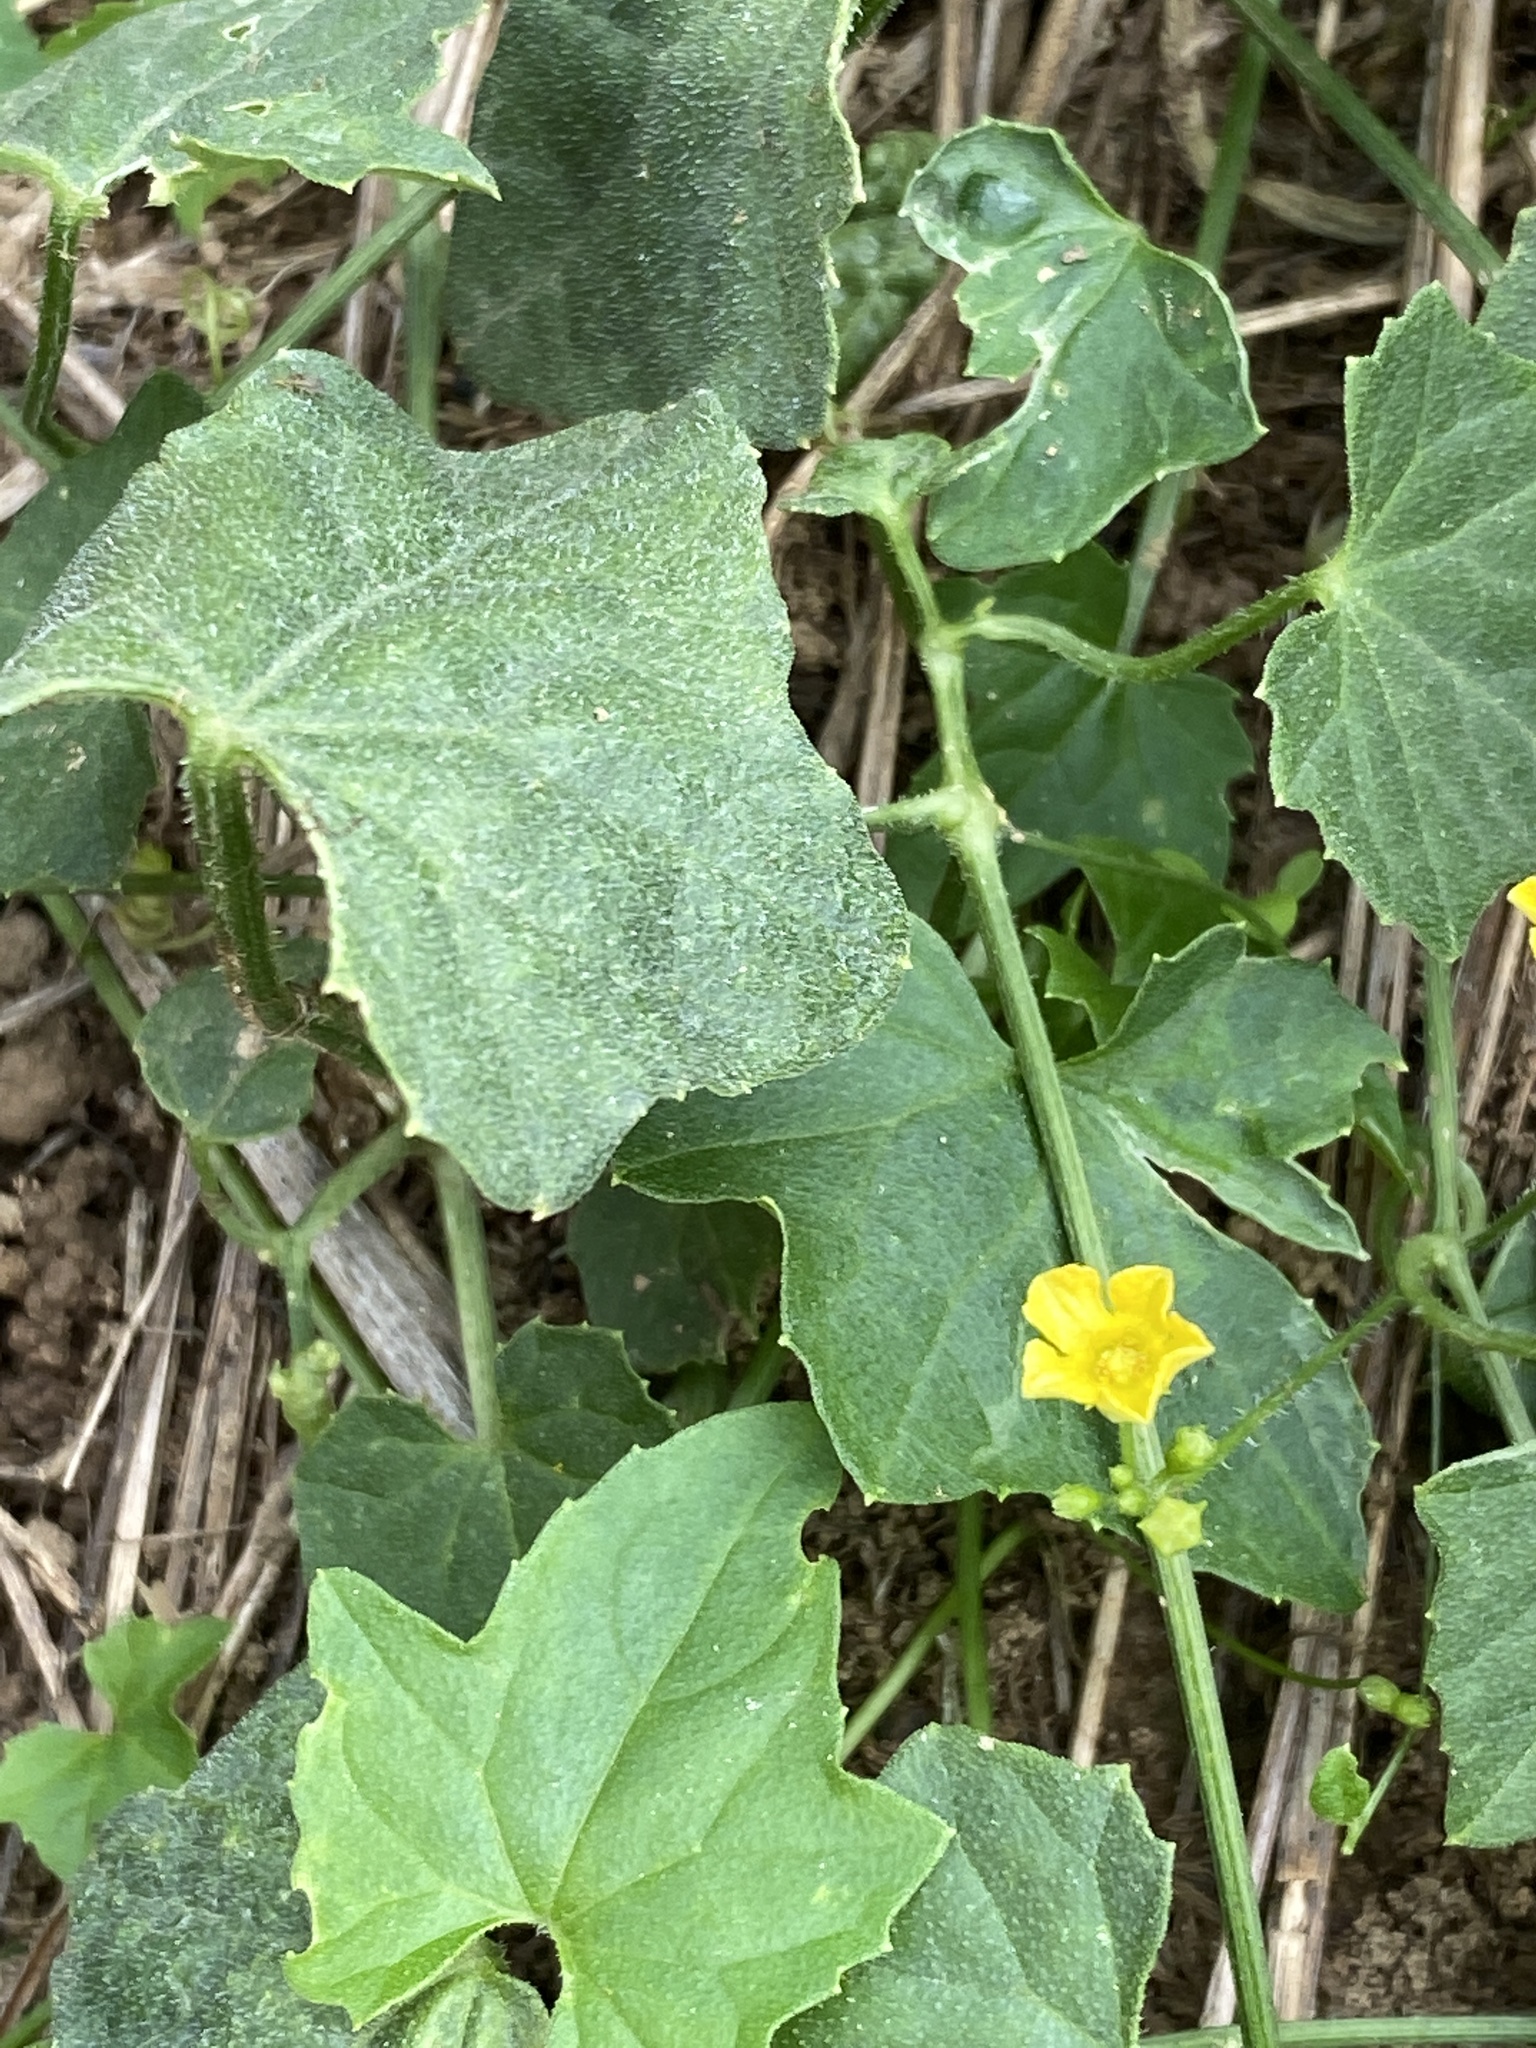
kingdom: Plantae
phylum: Tracheophyta
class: Magnoliopsida
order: Cucurbitales
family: Cucurbitaceae
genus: Melothria
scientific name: Melothria pendula
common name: Creeping-cucumber
